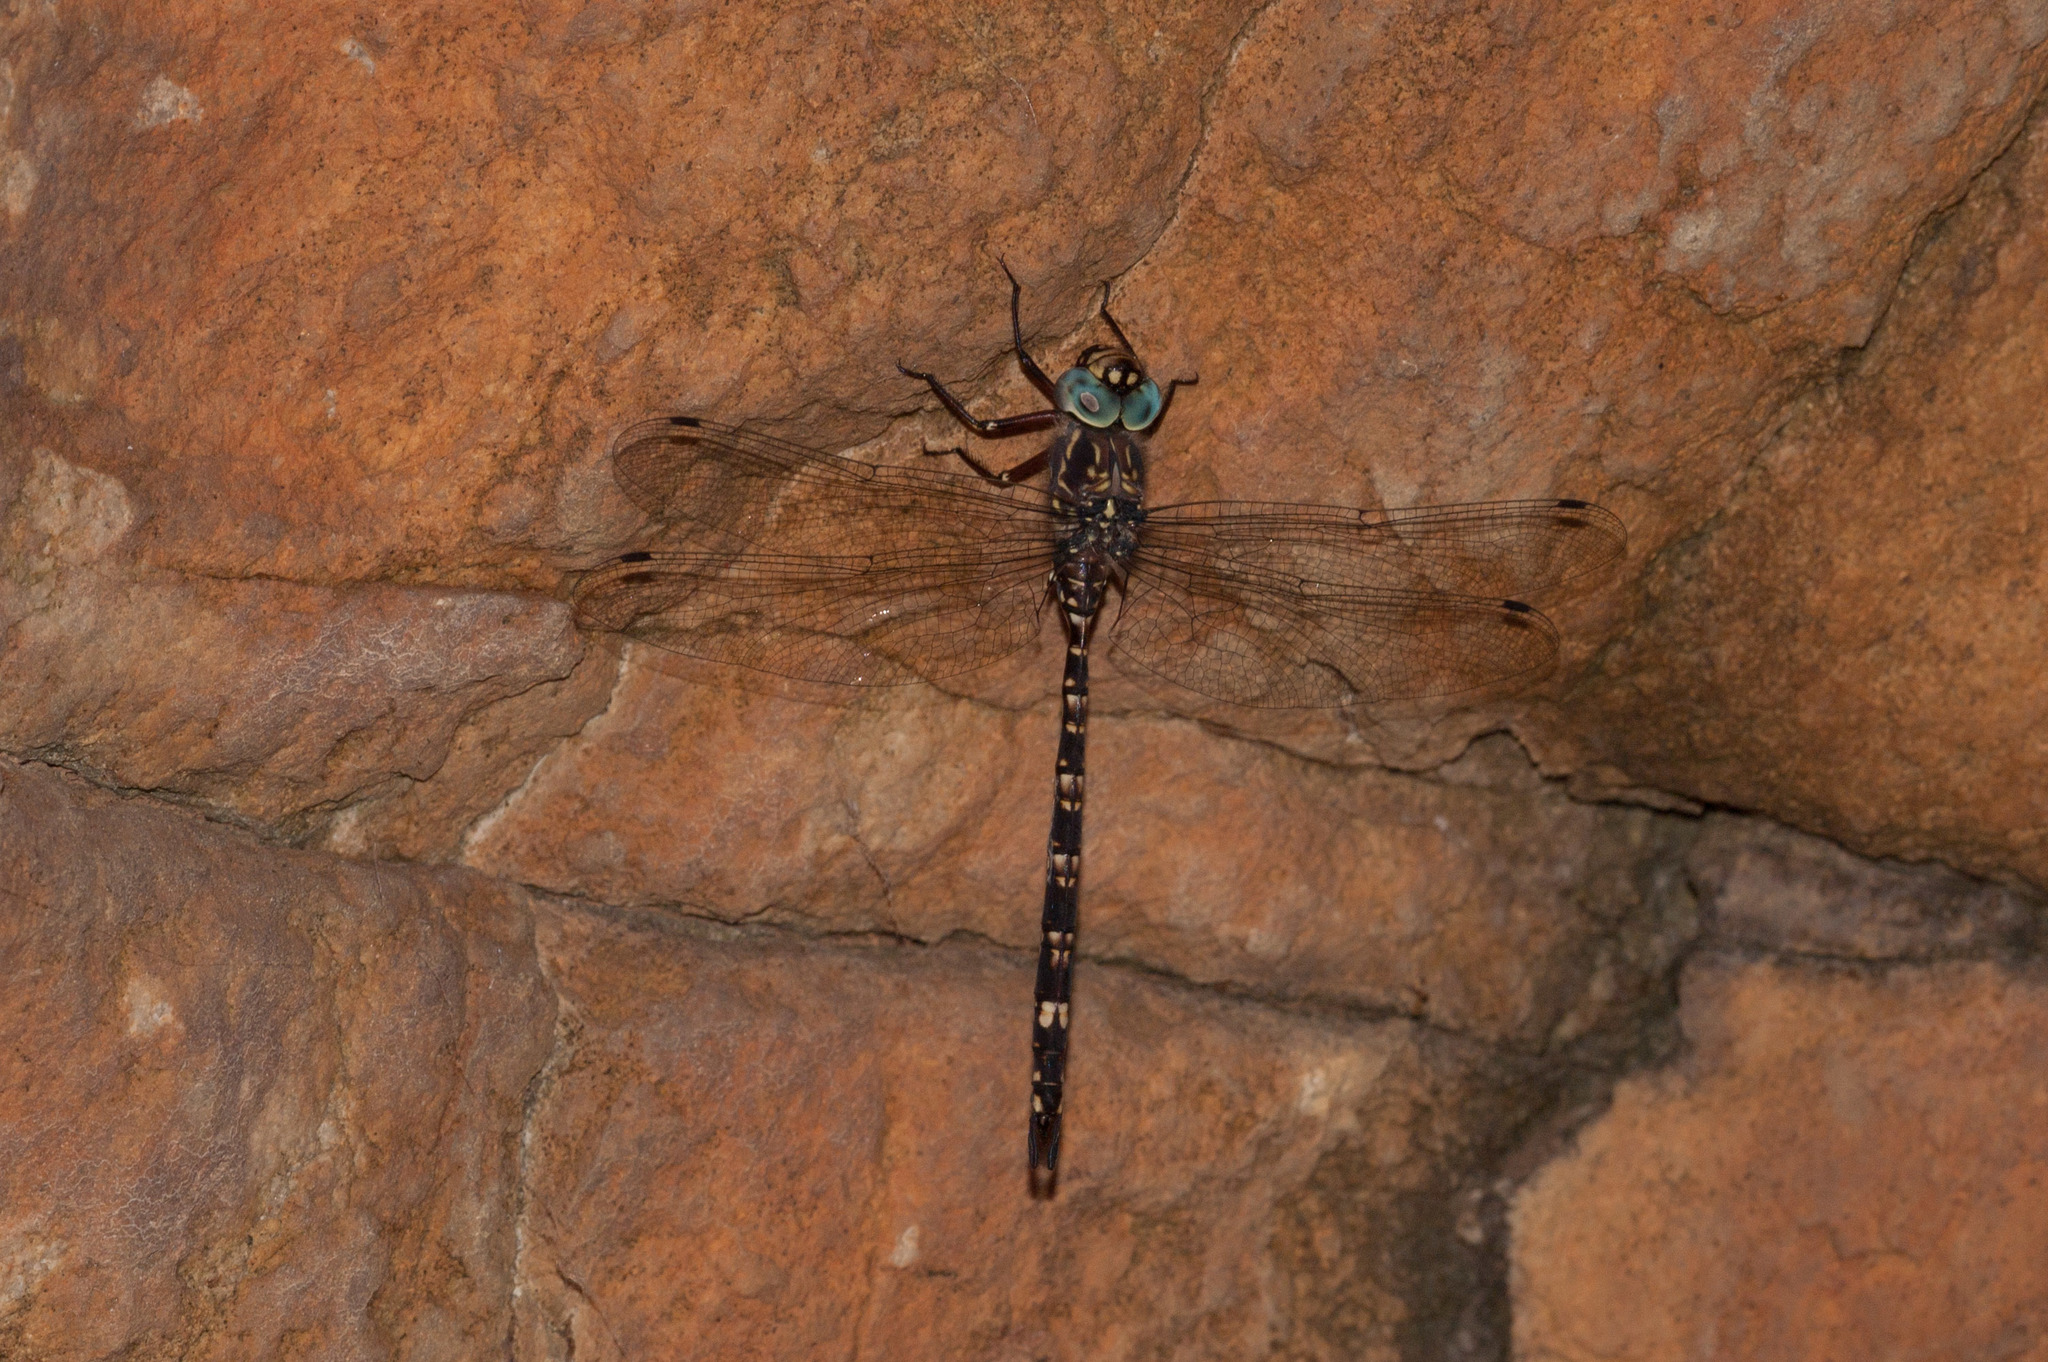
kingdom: Animalia
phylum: Arthropoda
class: Insecta
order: Odonata
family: Aeshnidae
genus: Austroaeschna
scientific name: Austroaeschna parvistigma
